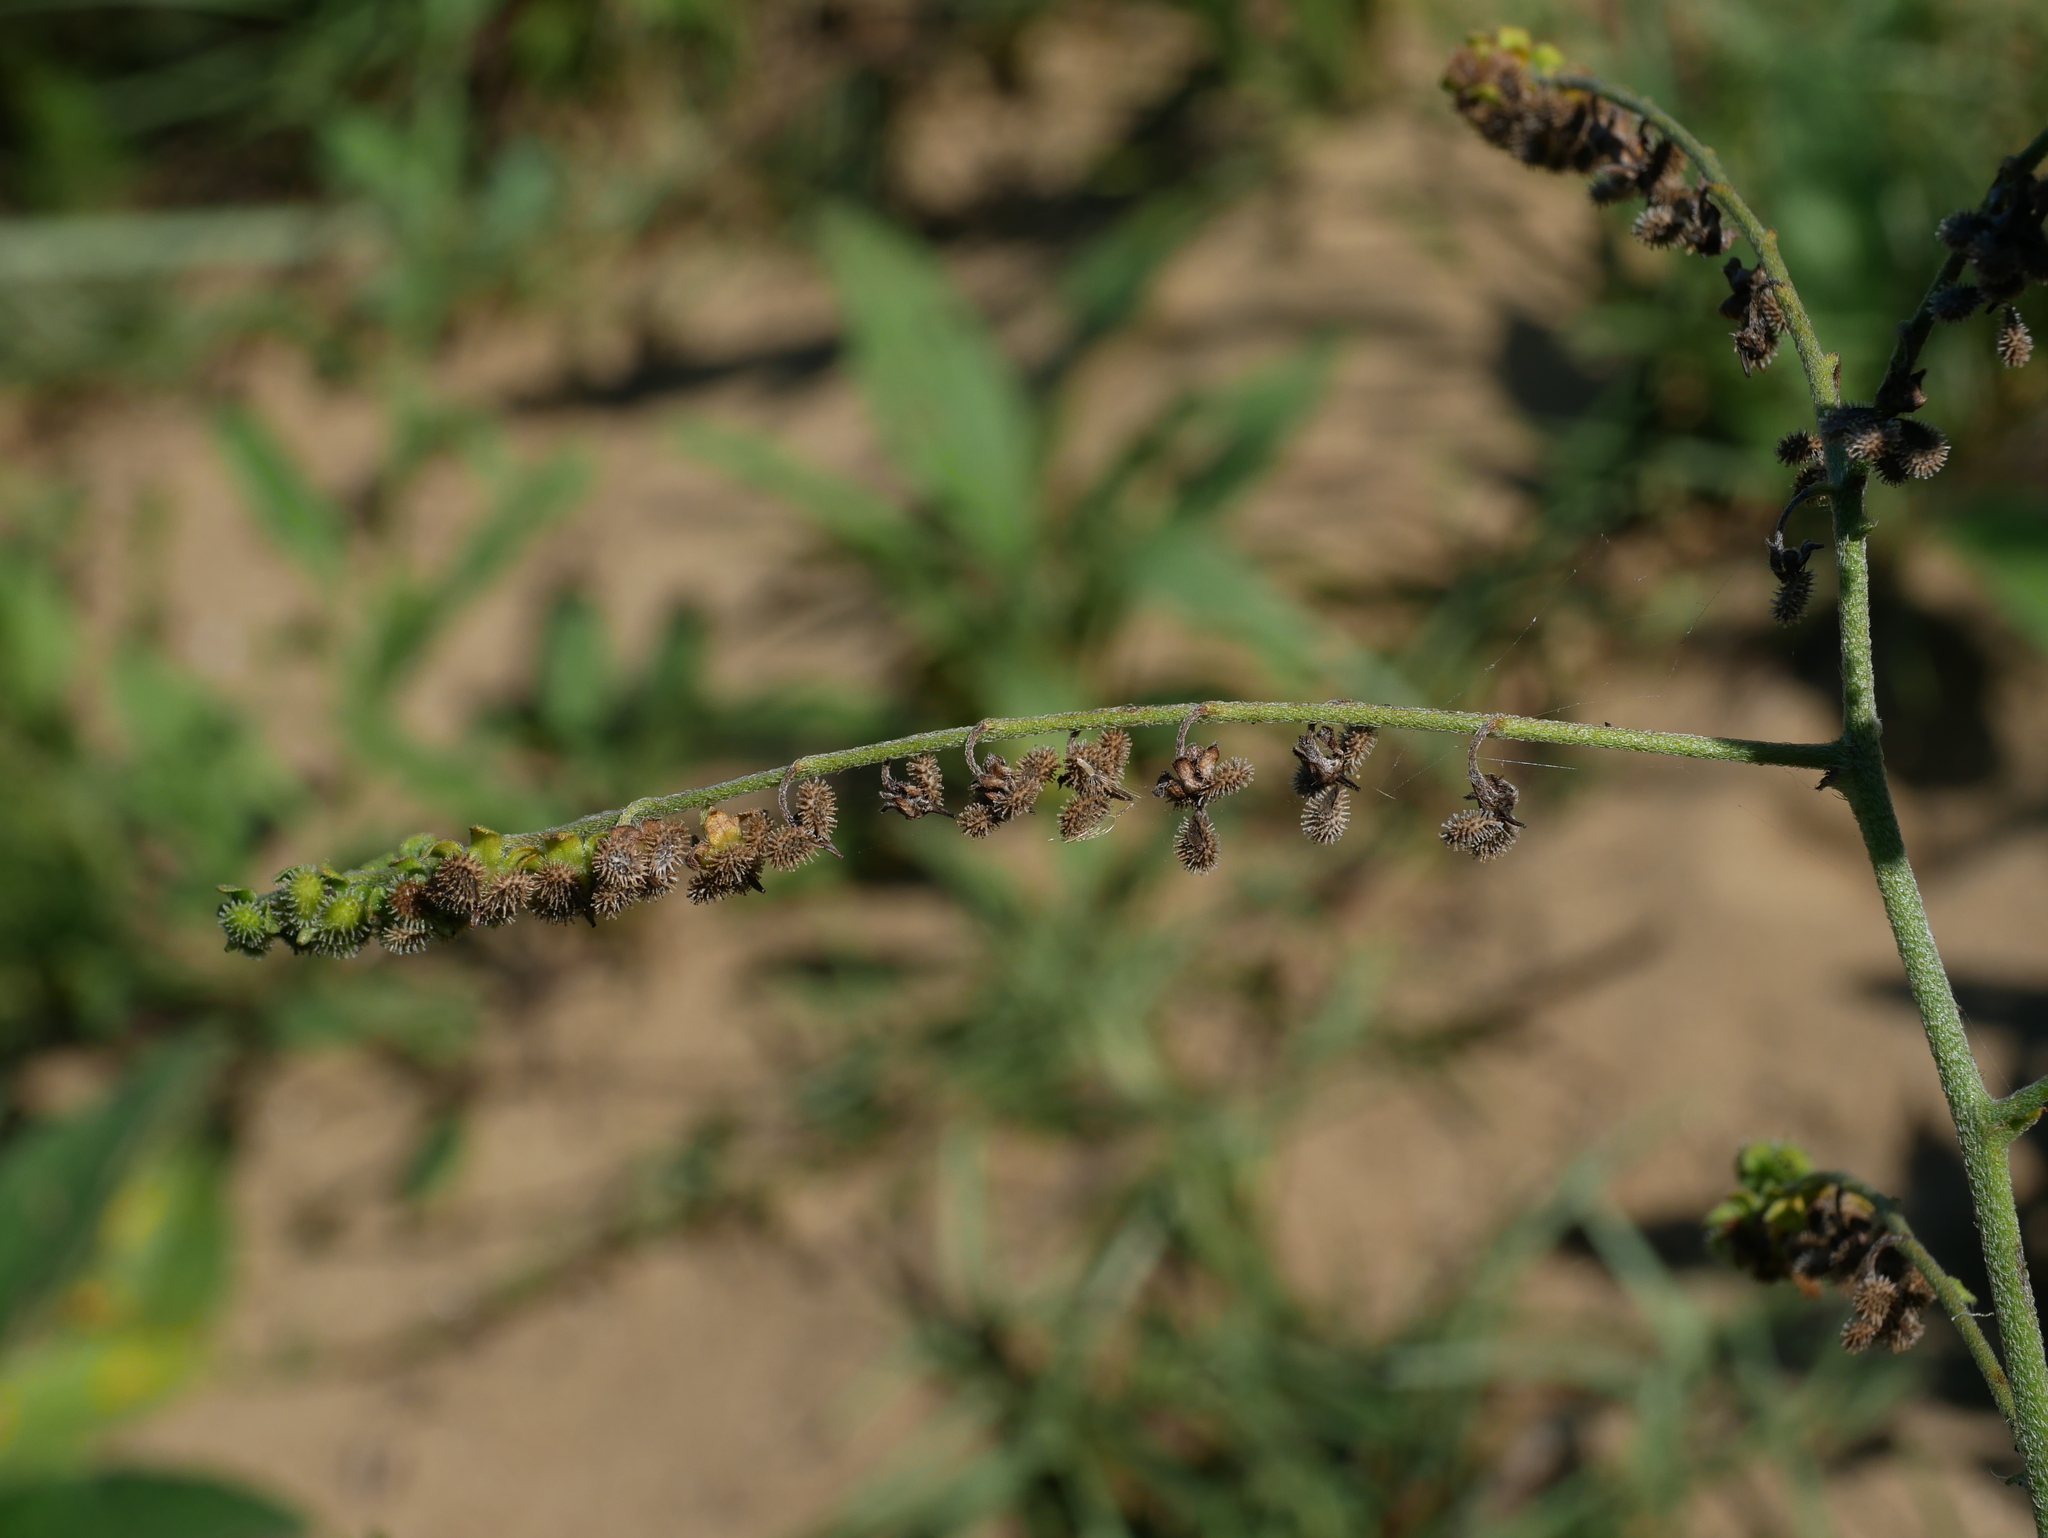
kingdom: Plantae
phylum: Tracheophyta
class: Magnoliopsida
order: Boraginales
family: Boraginaceae
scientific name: Boraginaceae
